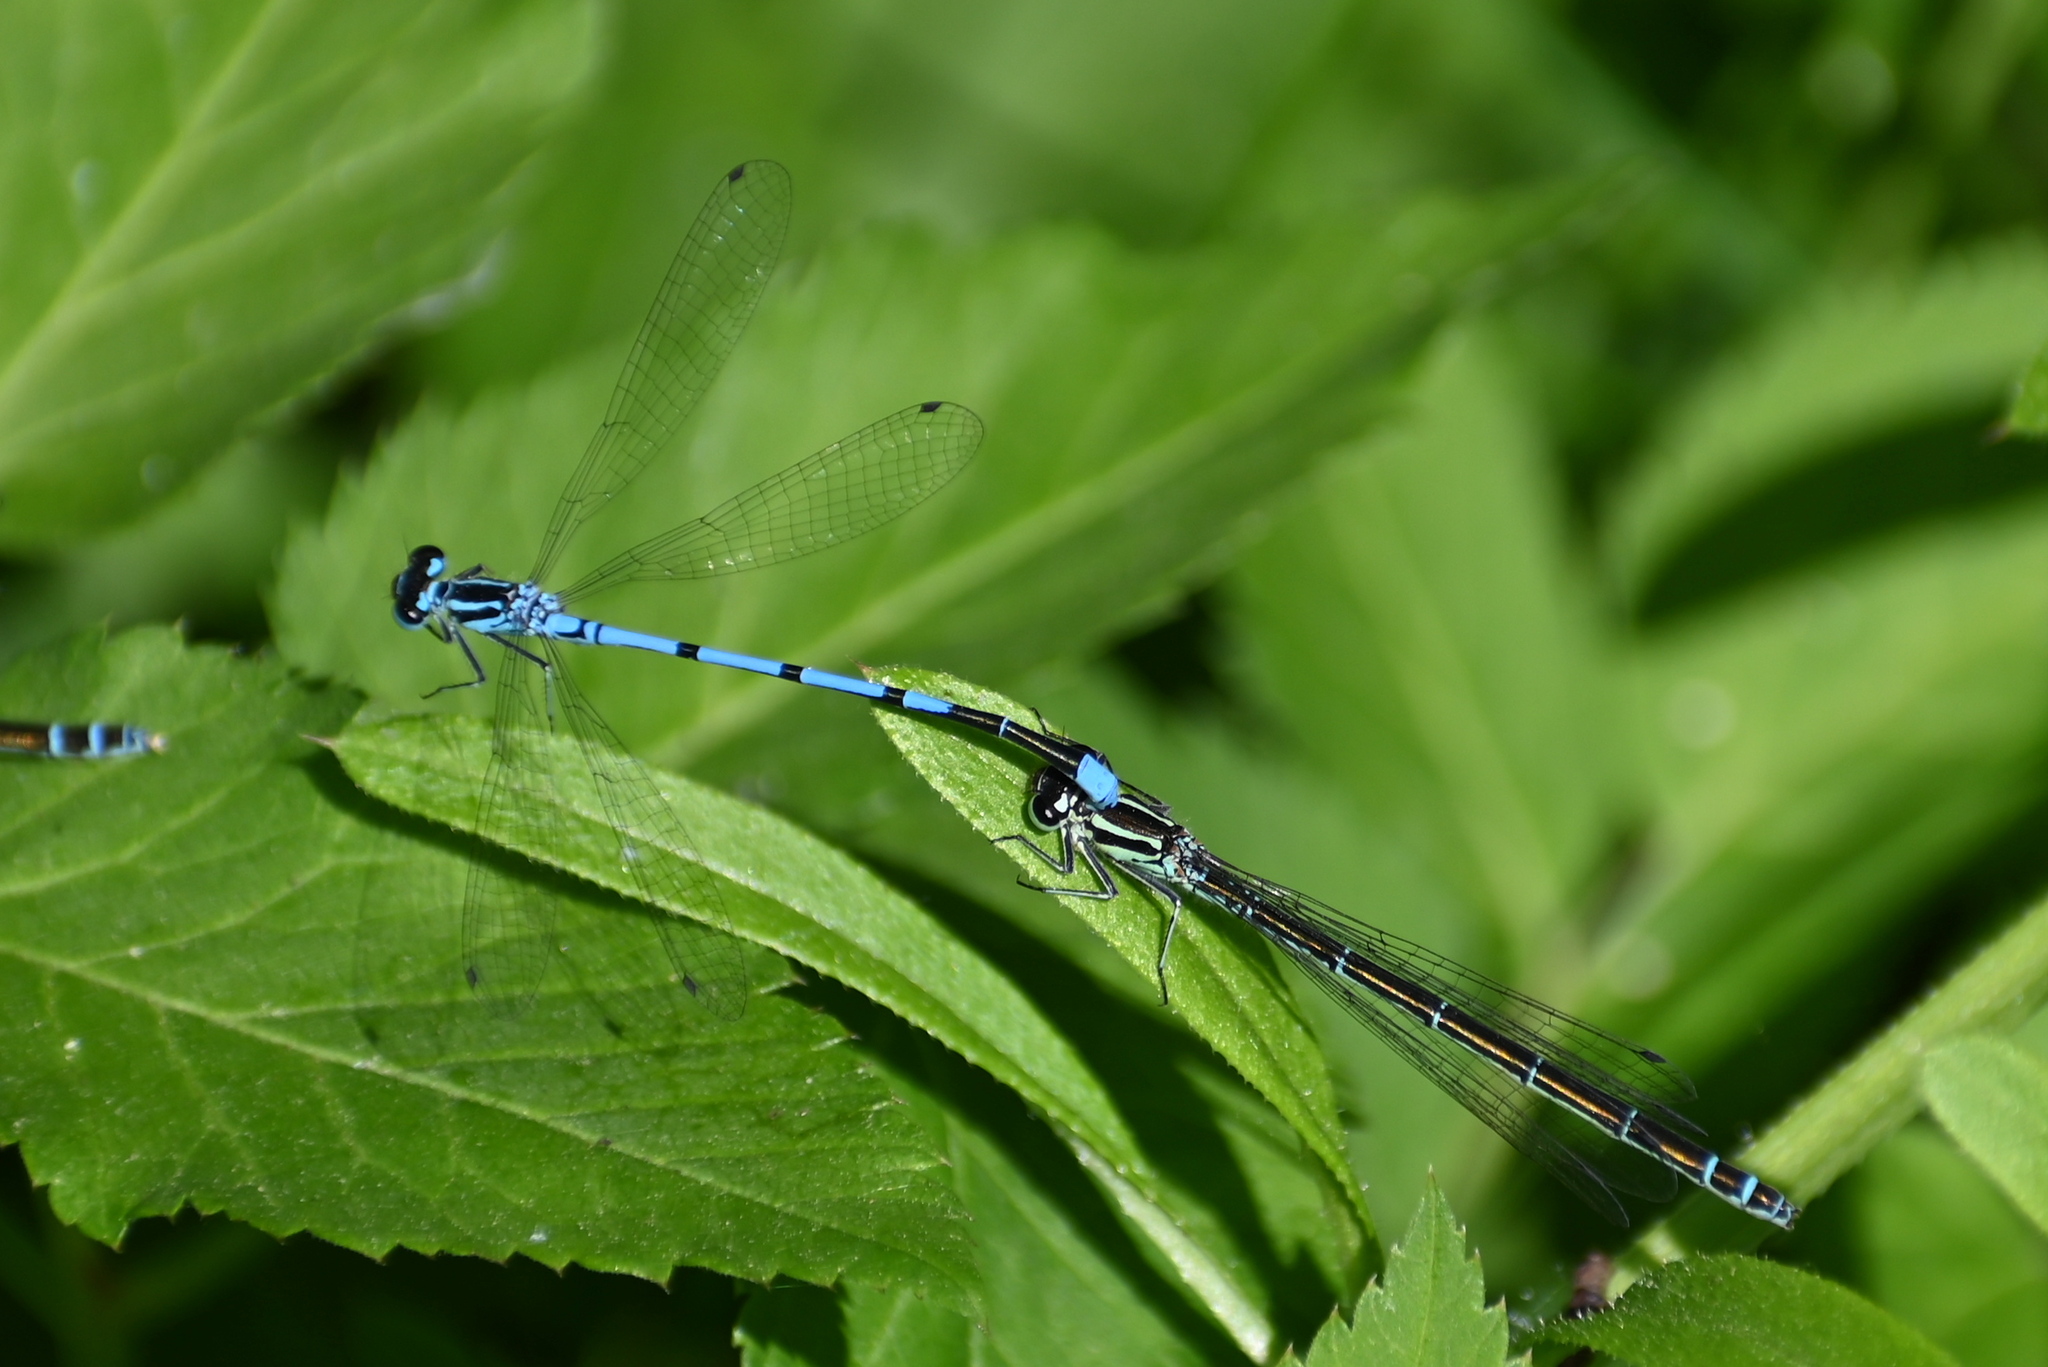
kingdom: Animalia
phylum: Arthropoda
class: Insecta
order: Odonata
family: Coenagrionidae
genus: Coenagrion
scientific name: Coenagrion puella
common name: Azure damselfly
